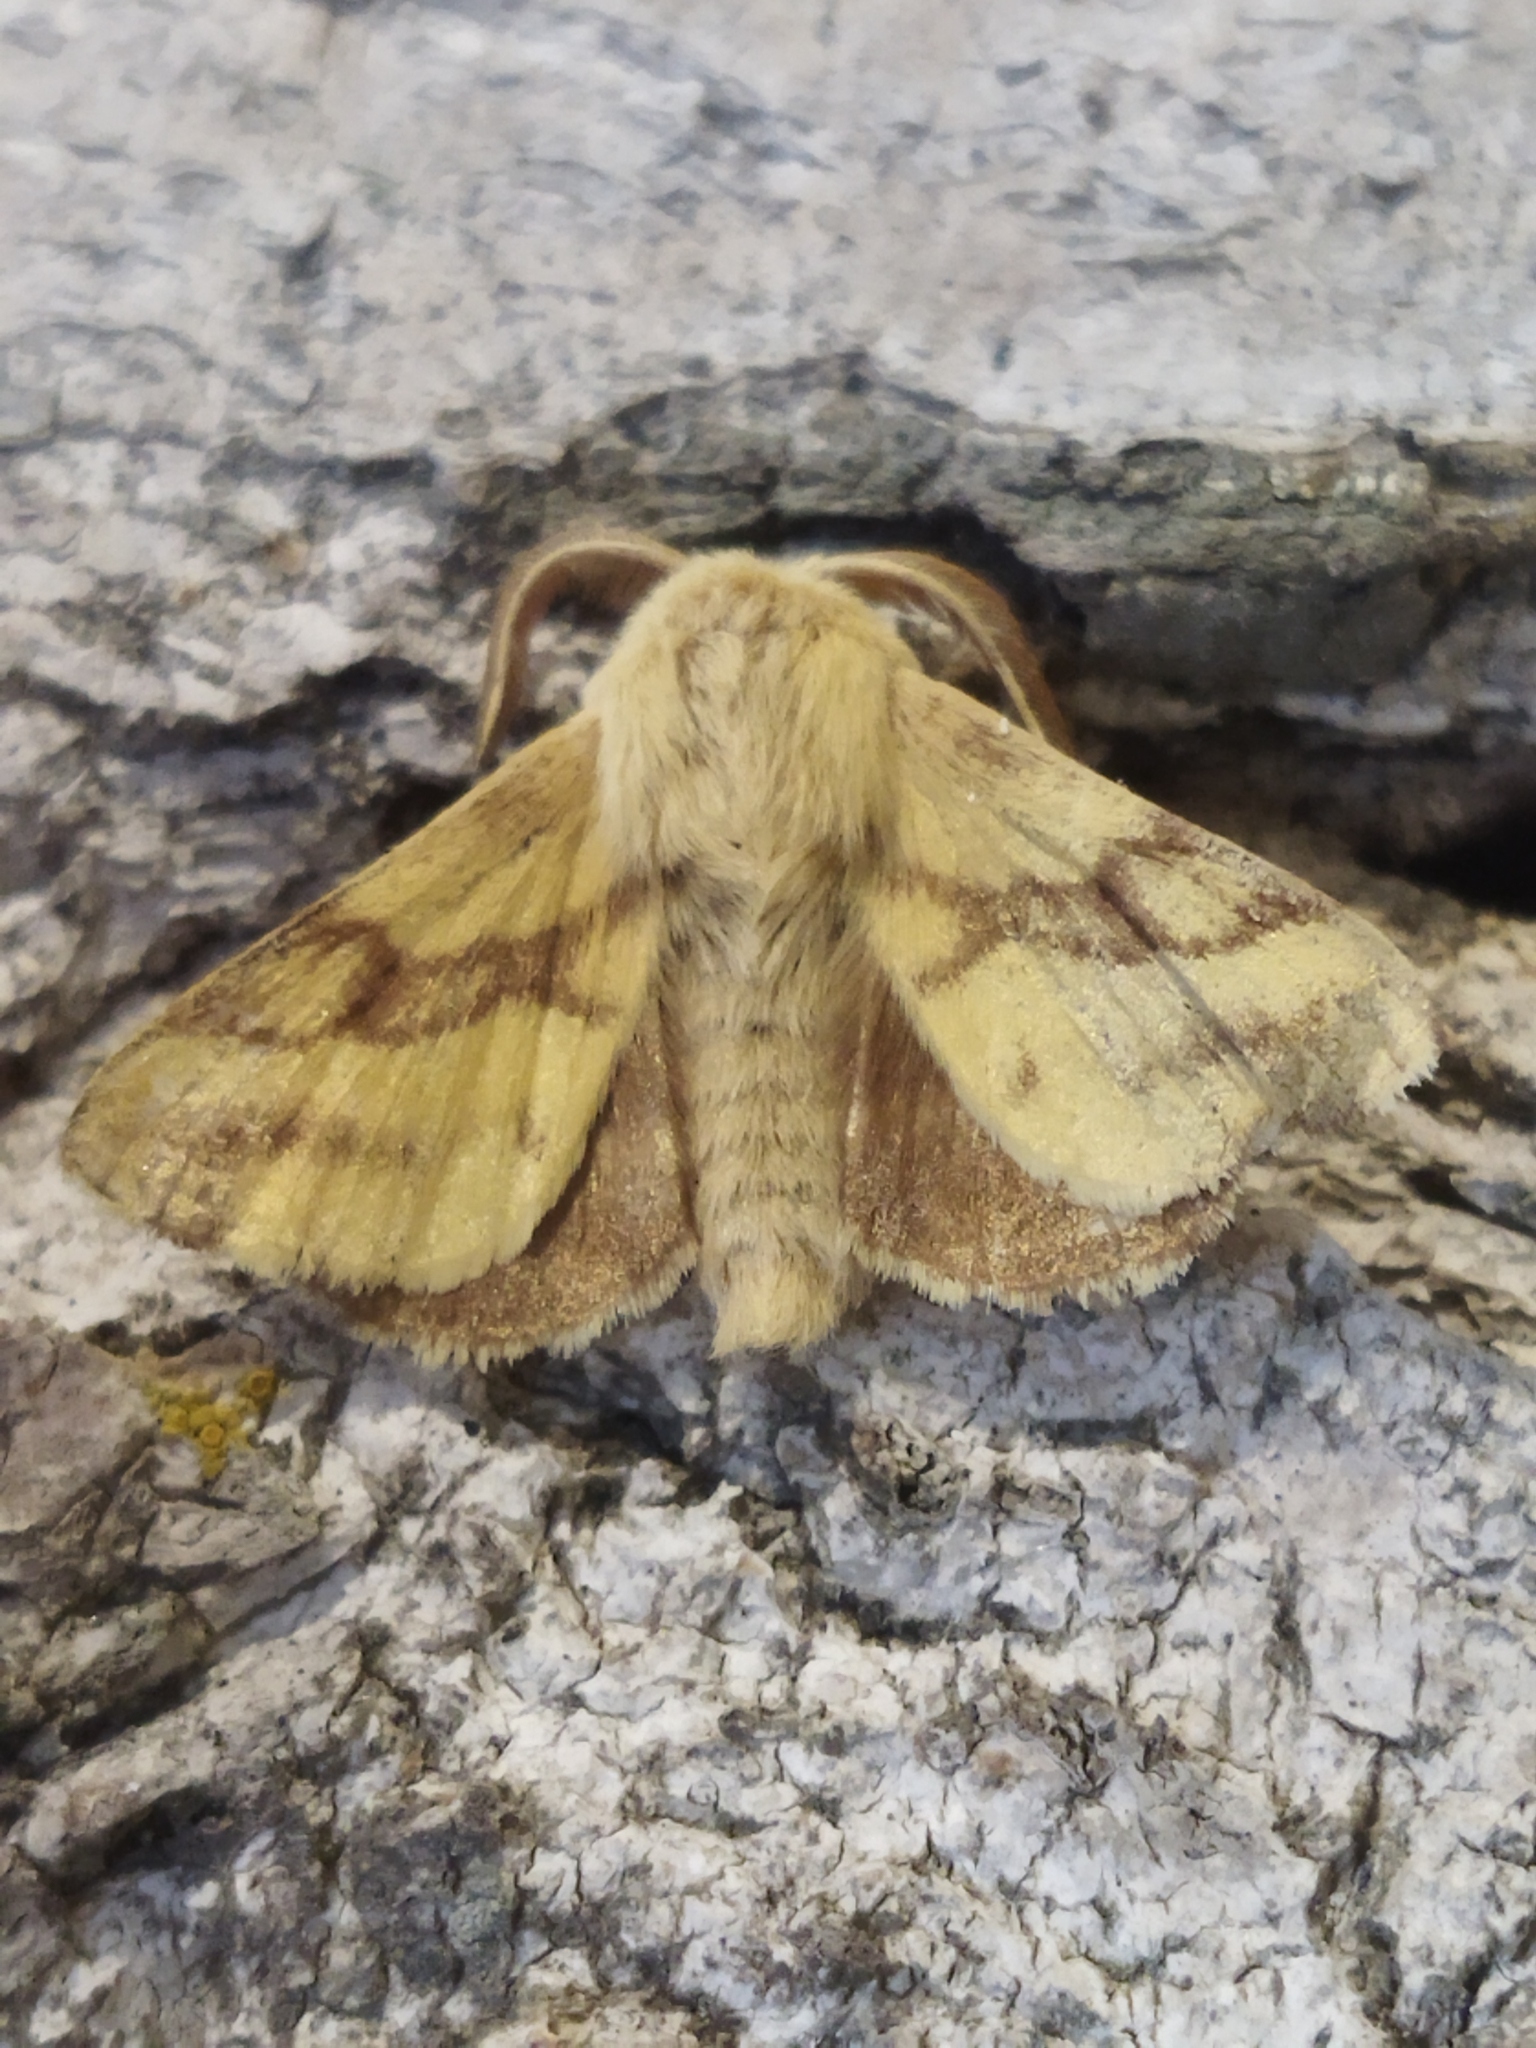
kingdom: Animalia
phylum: Arthropoda
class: Insecta
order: Lepidoptera
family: Lasiocampidae
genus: Malacosoma
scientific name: Malacosoma castrense
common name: Ground lackey
